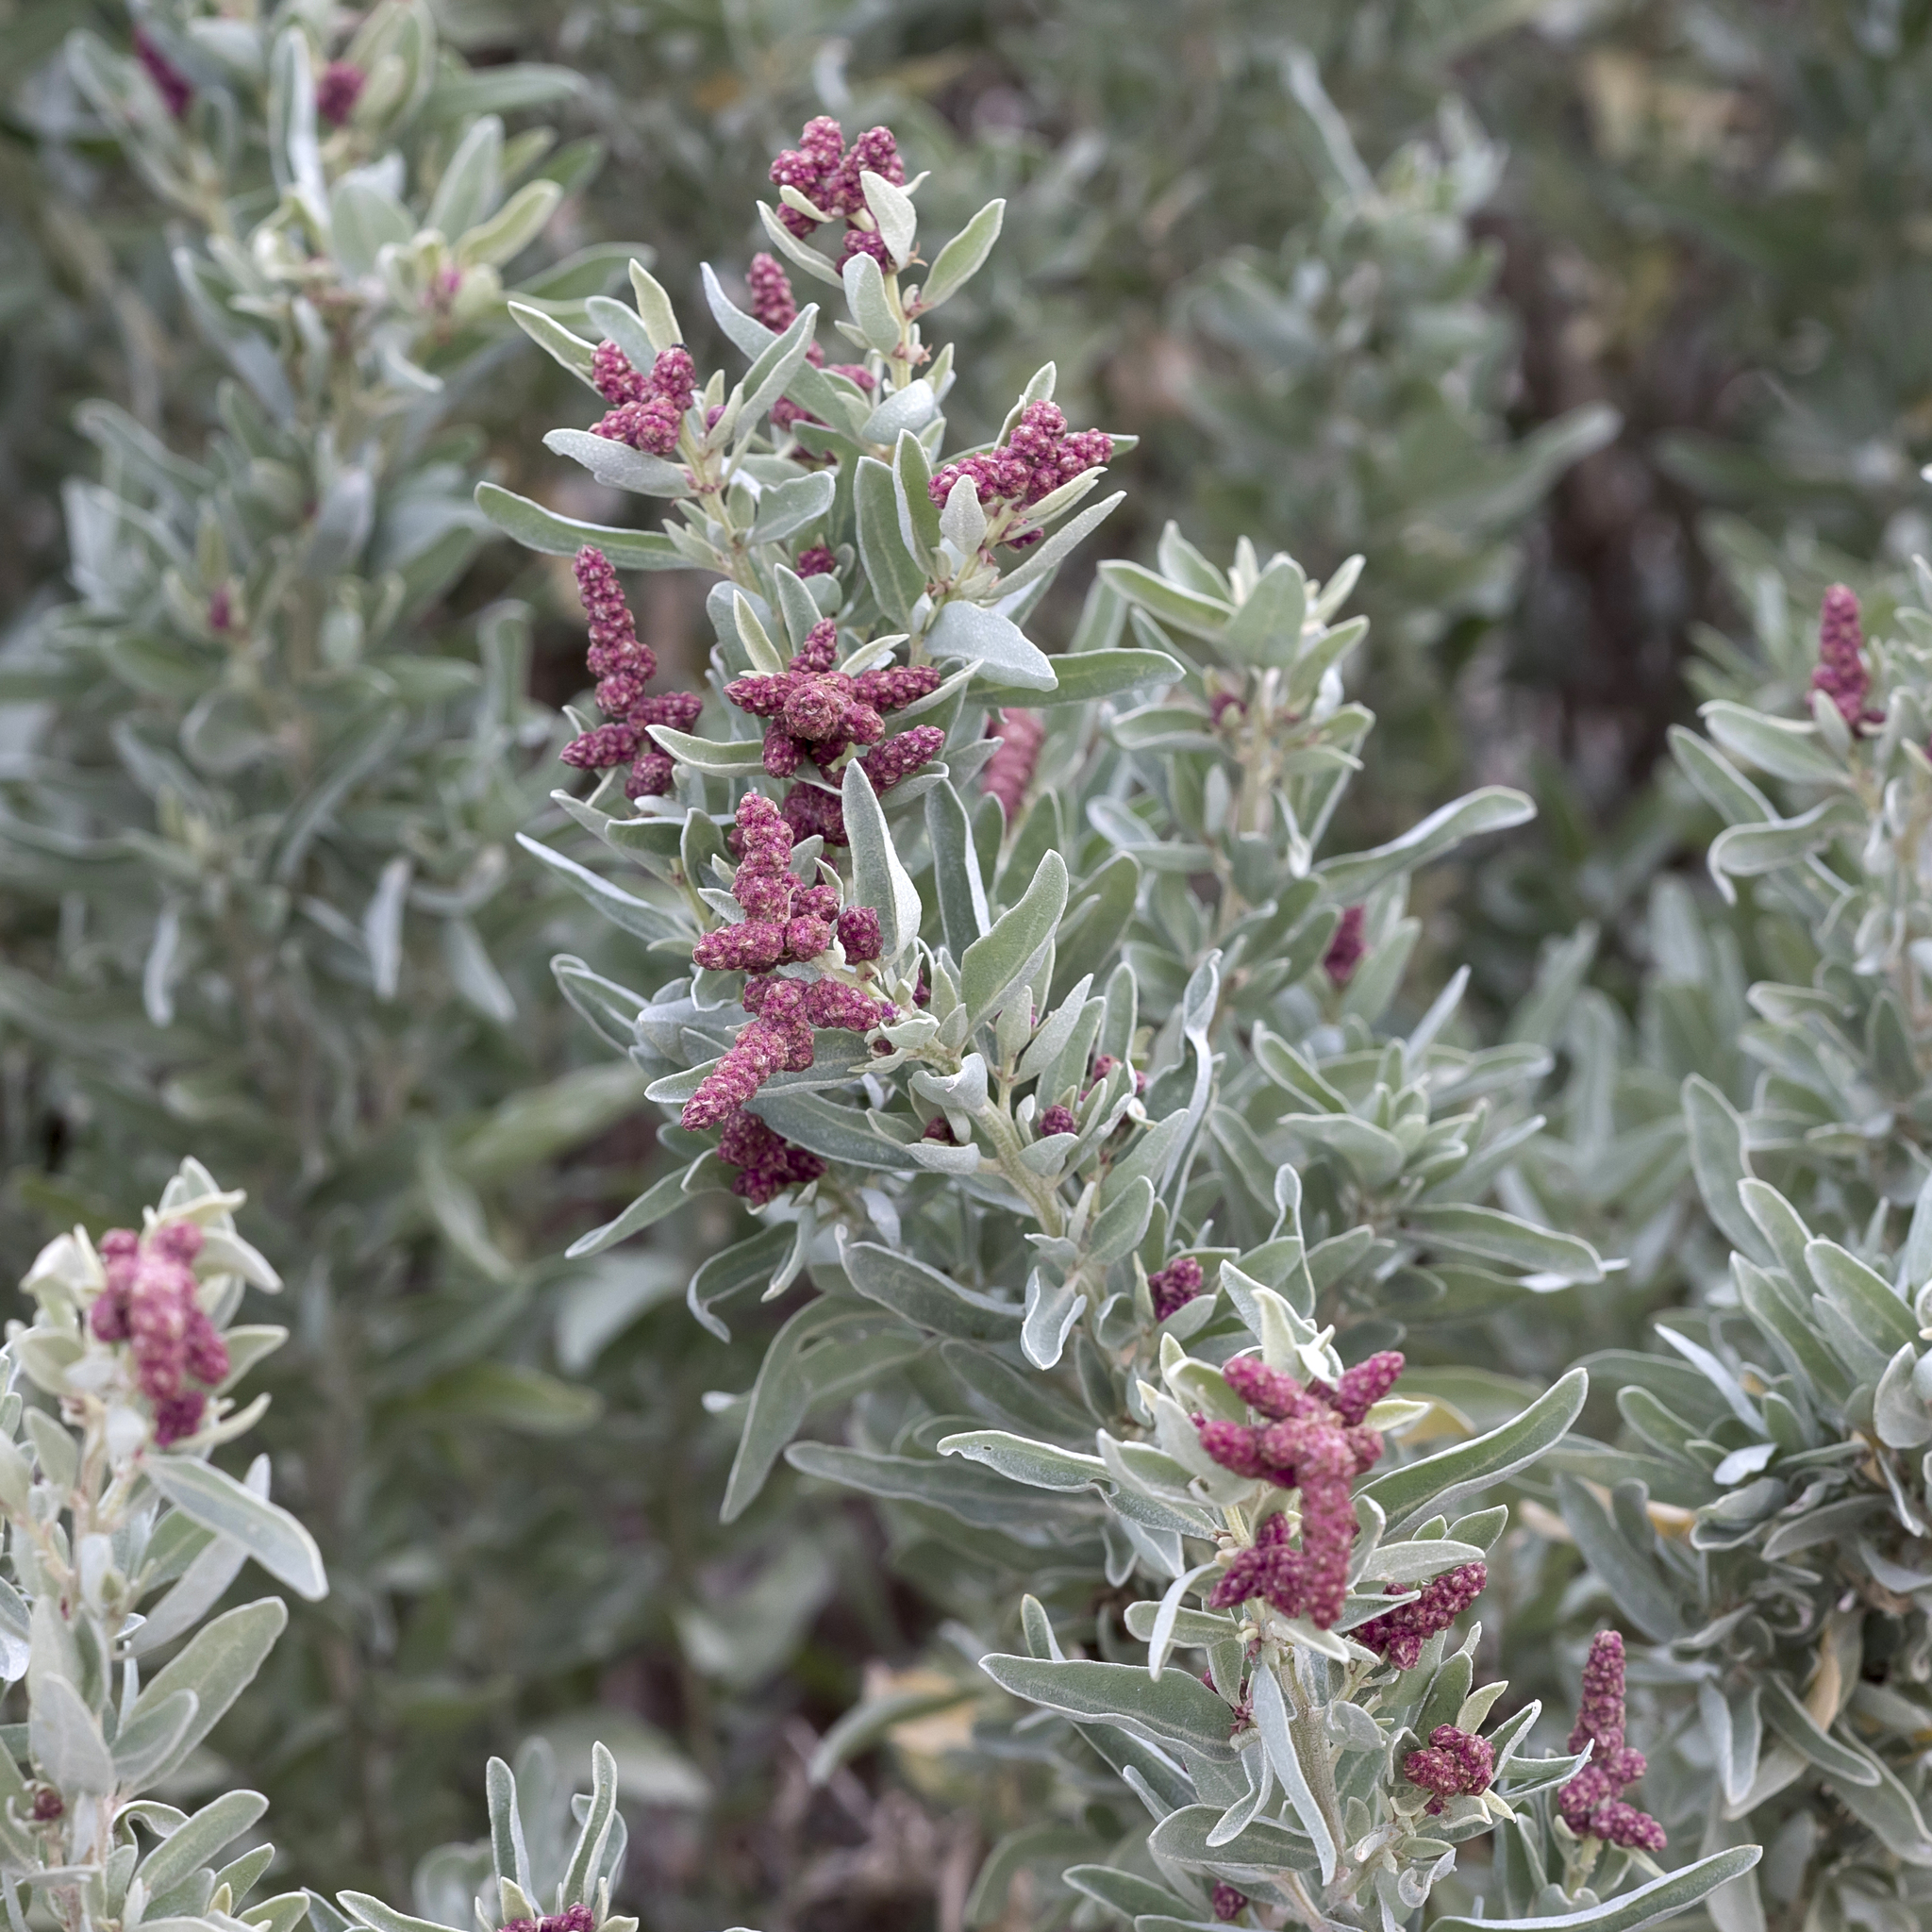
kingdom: Plantae
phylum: Tracheophyta
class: Magnoliopsida
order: Caryophyllales
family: Amaranthaceae
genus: Atriplex
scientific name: Atriplex cinerea
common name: Grey saltbush
